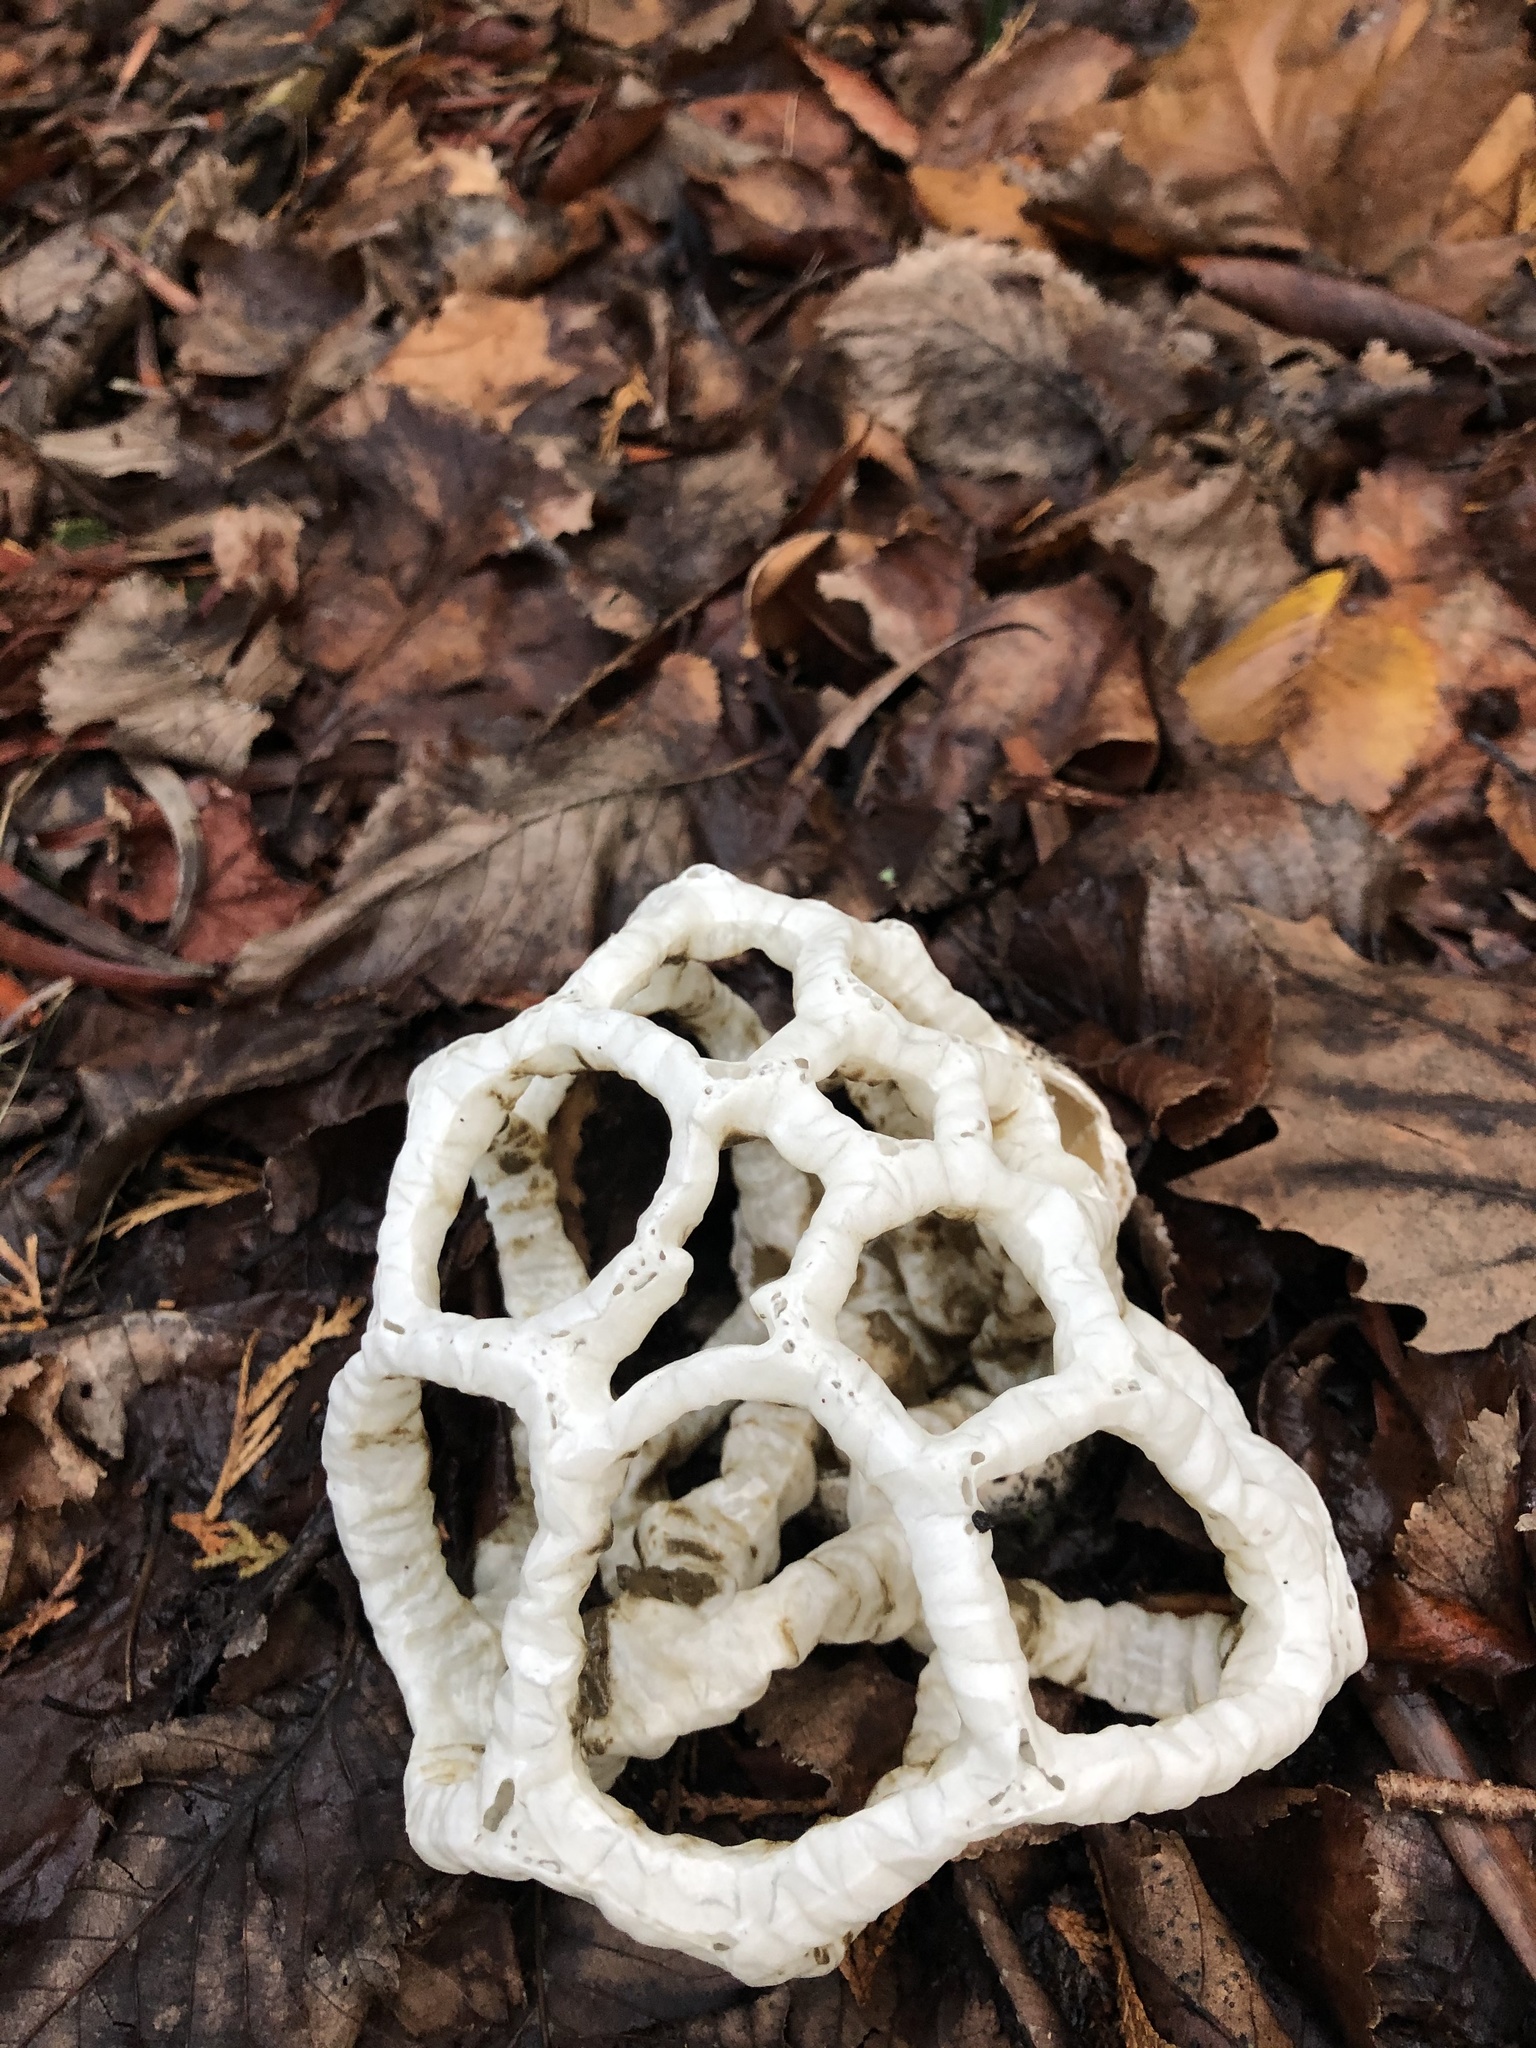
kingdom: Fungi
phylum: Basidiomycota
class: Agaricomycetes
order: Phallales
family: Phallaceae
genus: Ileodictyon
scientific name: Ileodictyon cibarium
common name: Basket fungus
